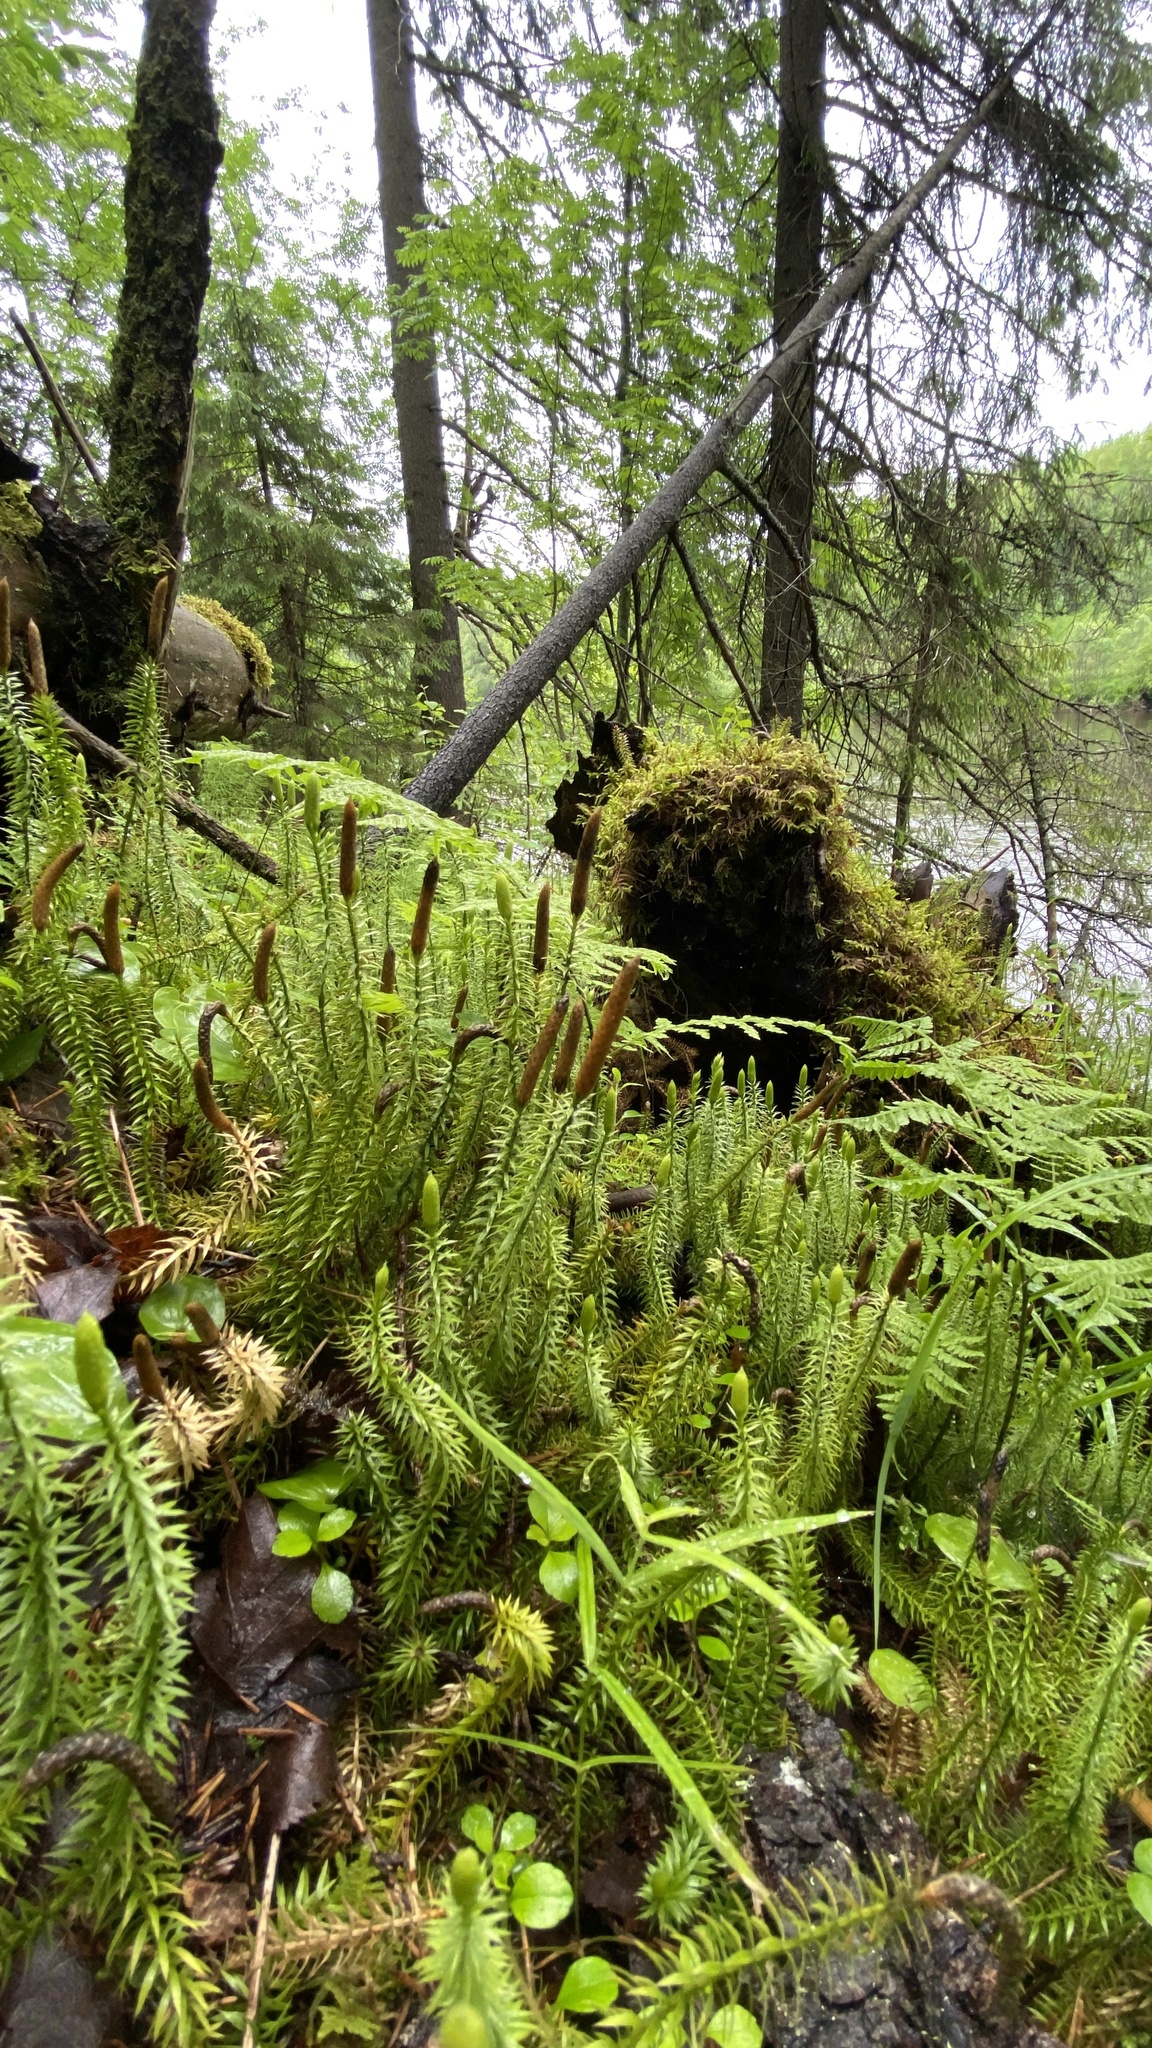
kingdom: Plantae
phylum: Tracheophyta
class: Lycopodiopsida
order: Lycopodiales
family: Lycopodiaceae
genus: Spinulum
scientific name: Spinulum annotinum
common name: Interrupted club-moss
